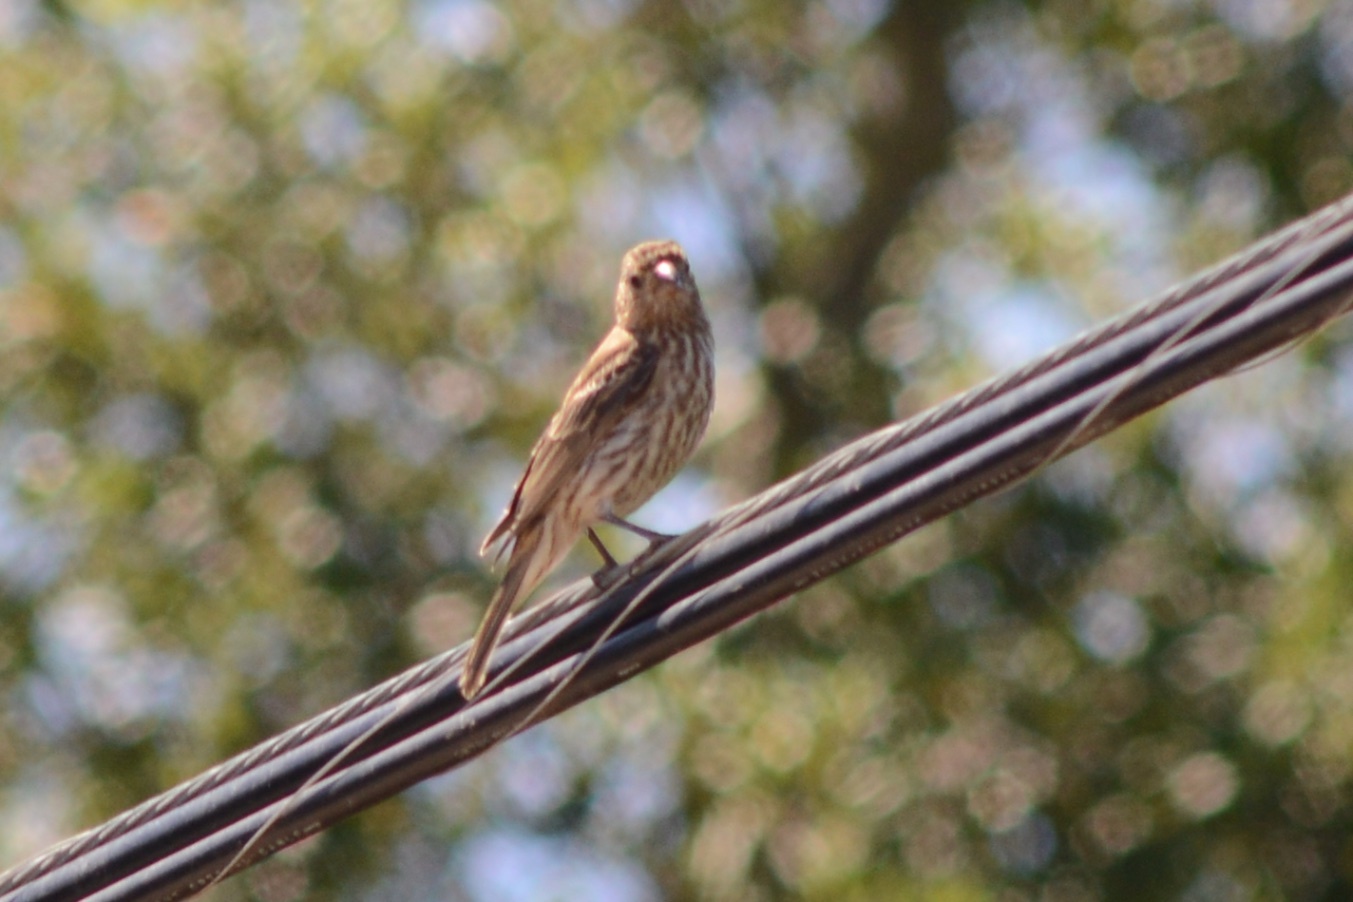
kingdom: Animalia
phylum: Chordata
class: Aves
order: Passeriformes
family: Fringillidae
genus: Haemorhous
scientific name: Haemorhous mexicanus
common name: House finch
